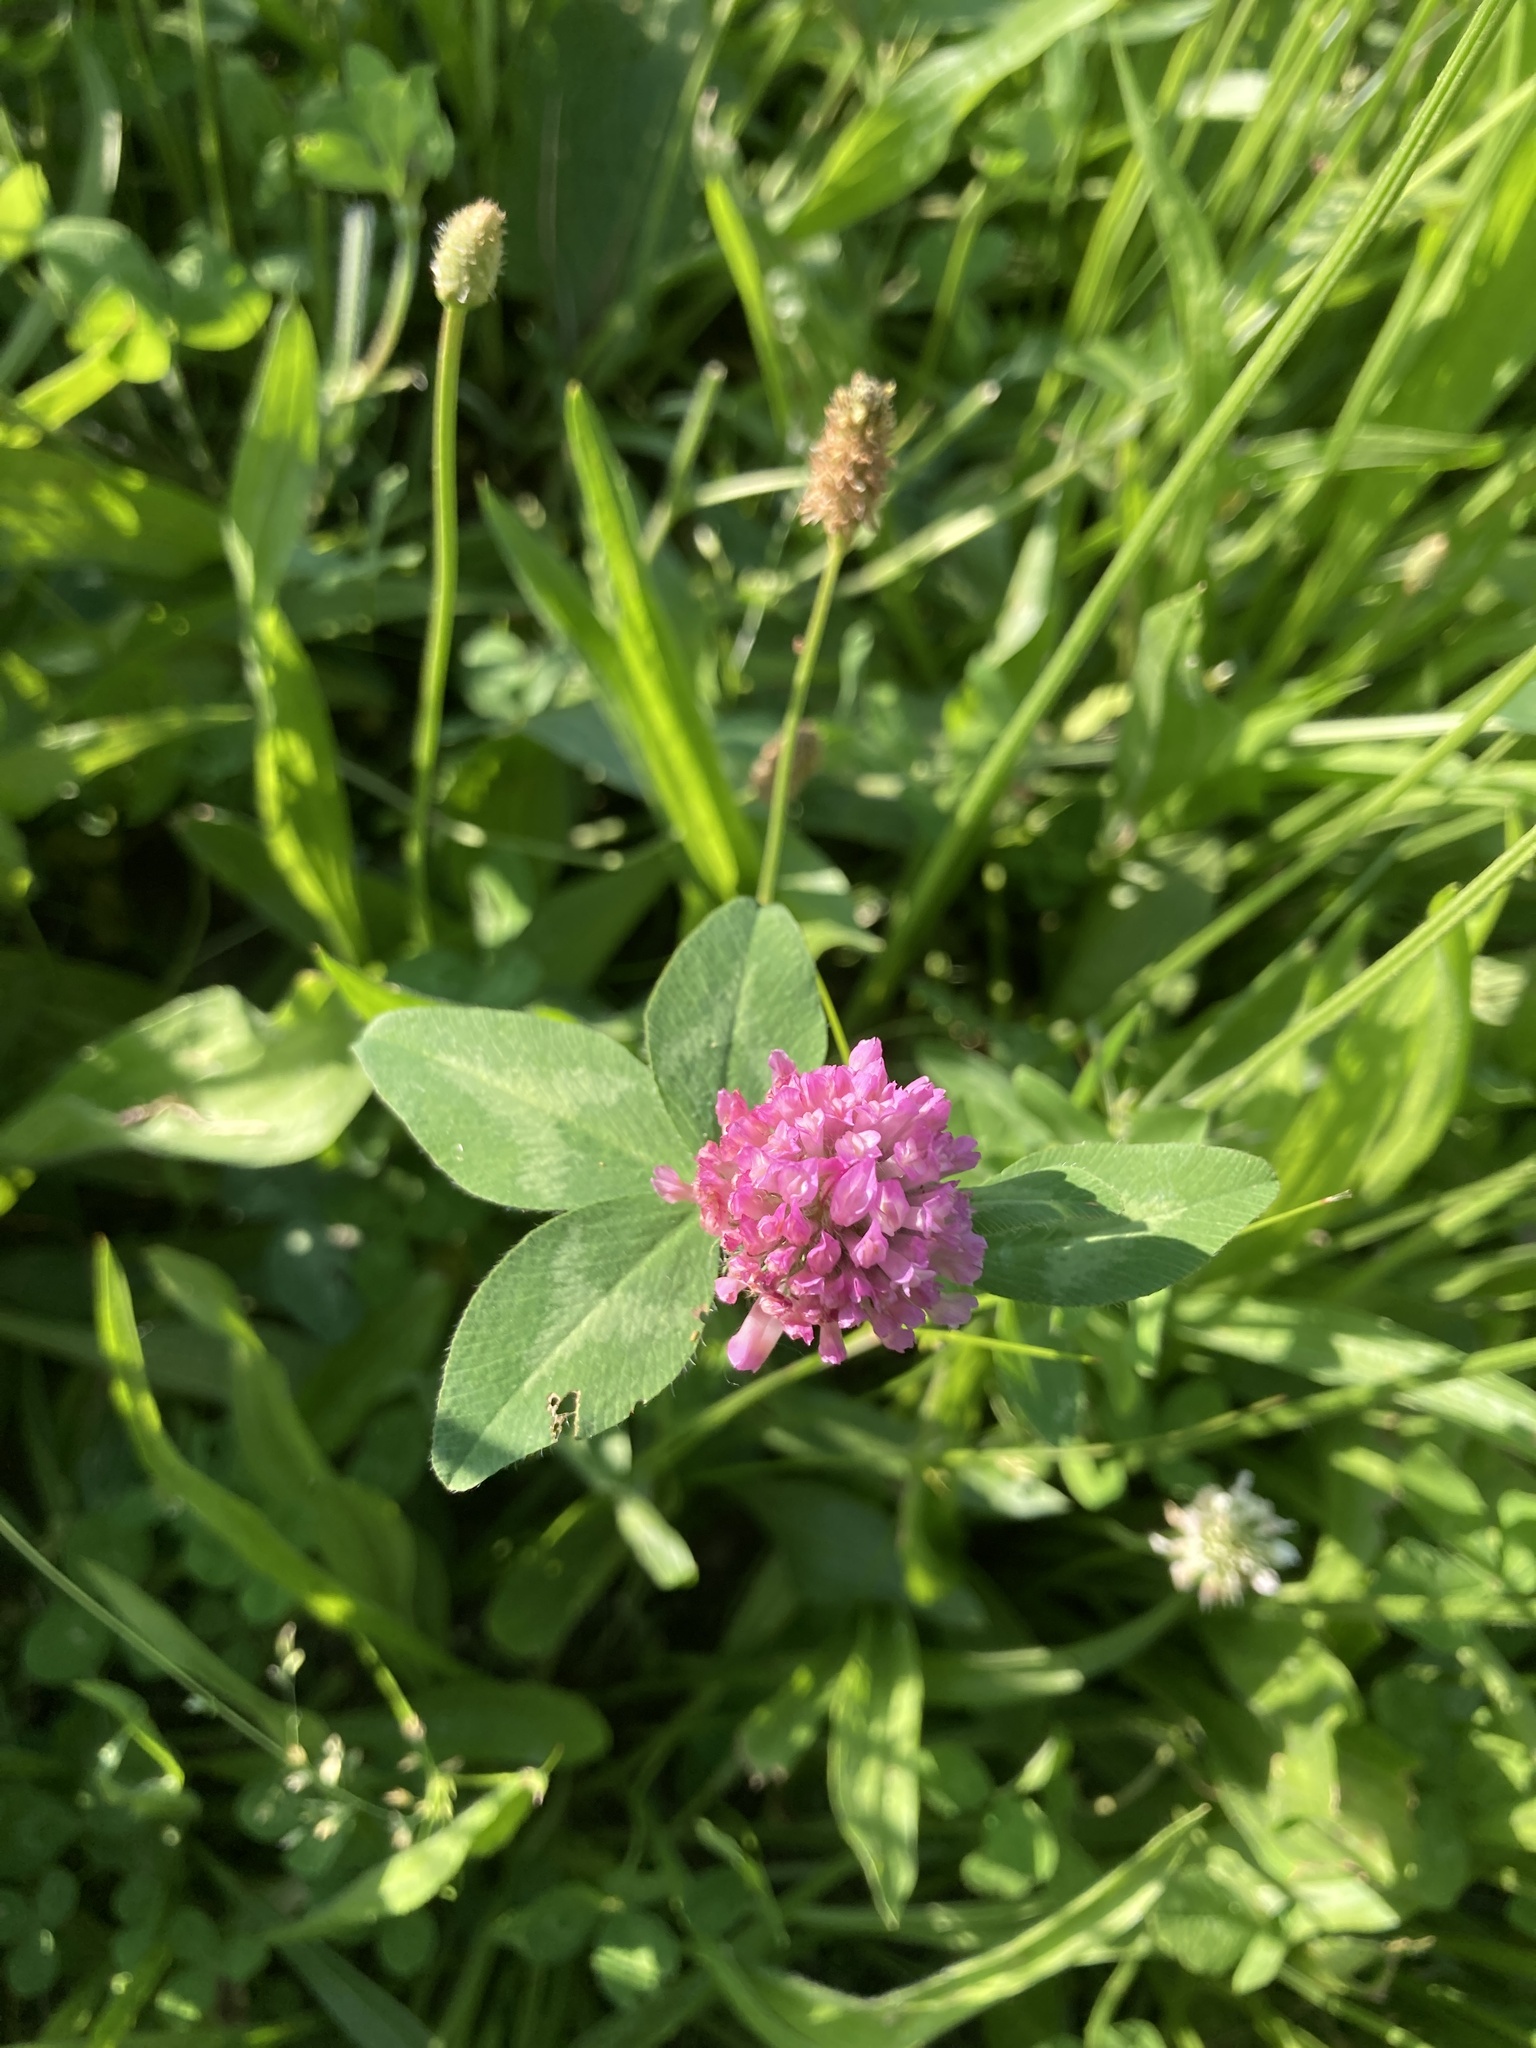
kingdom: Plantae
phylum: Tracheophyta
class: Magnoliopsida
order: Fabales
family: Fabaceae
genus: Trifolium
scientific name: Trifolium pratense
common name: Red clover
